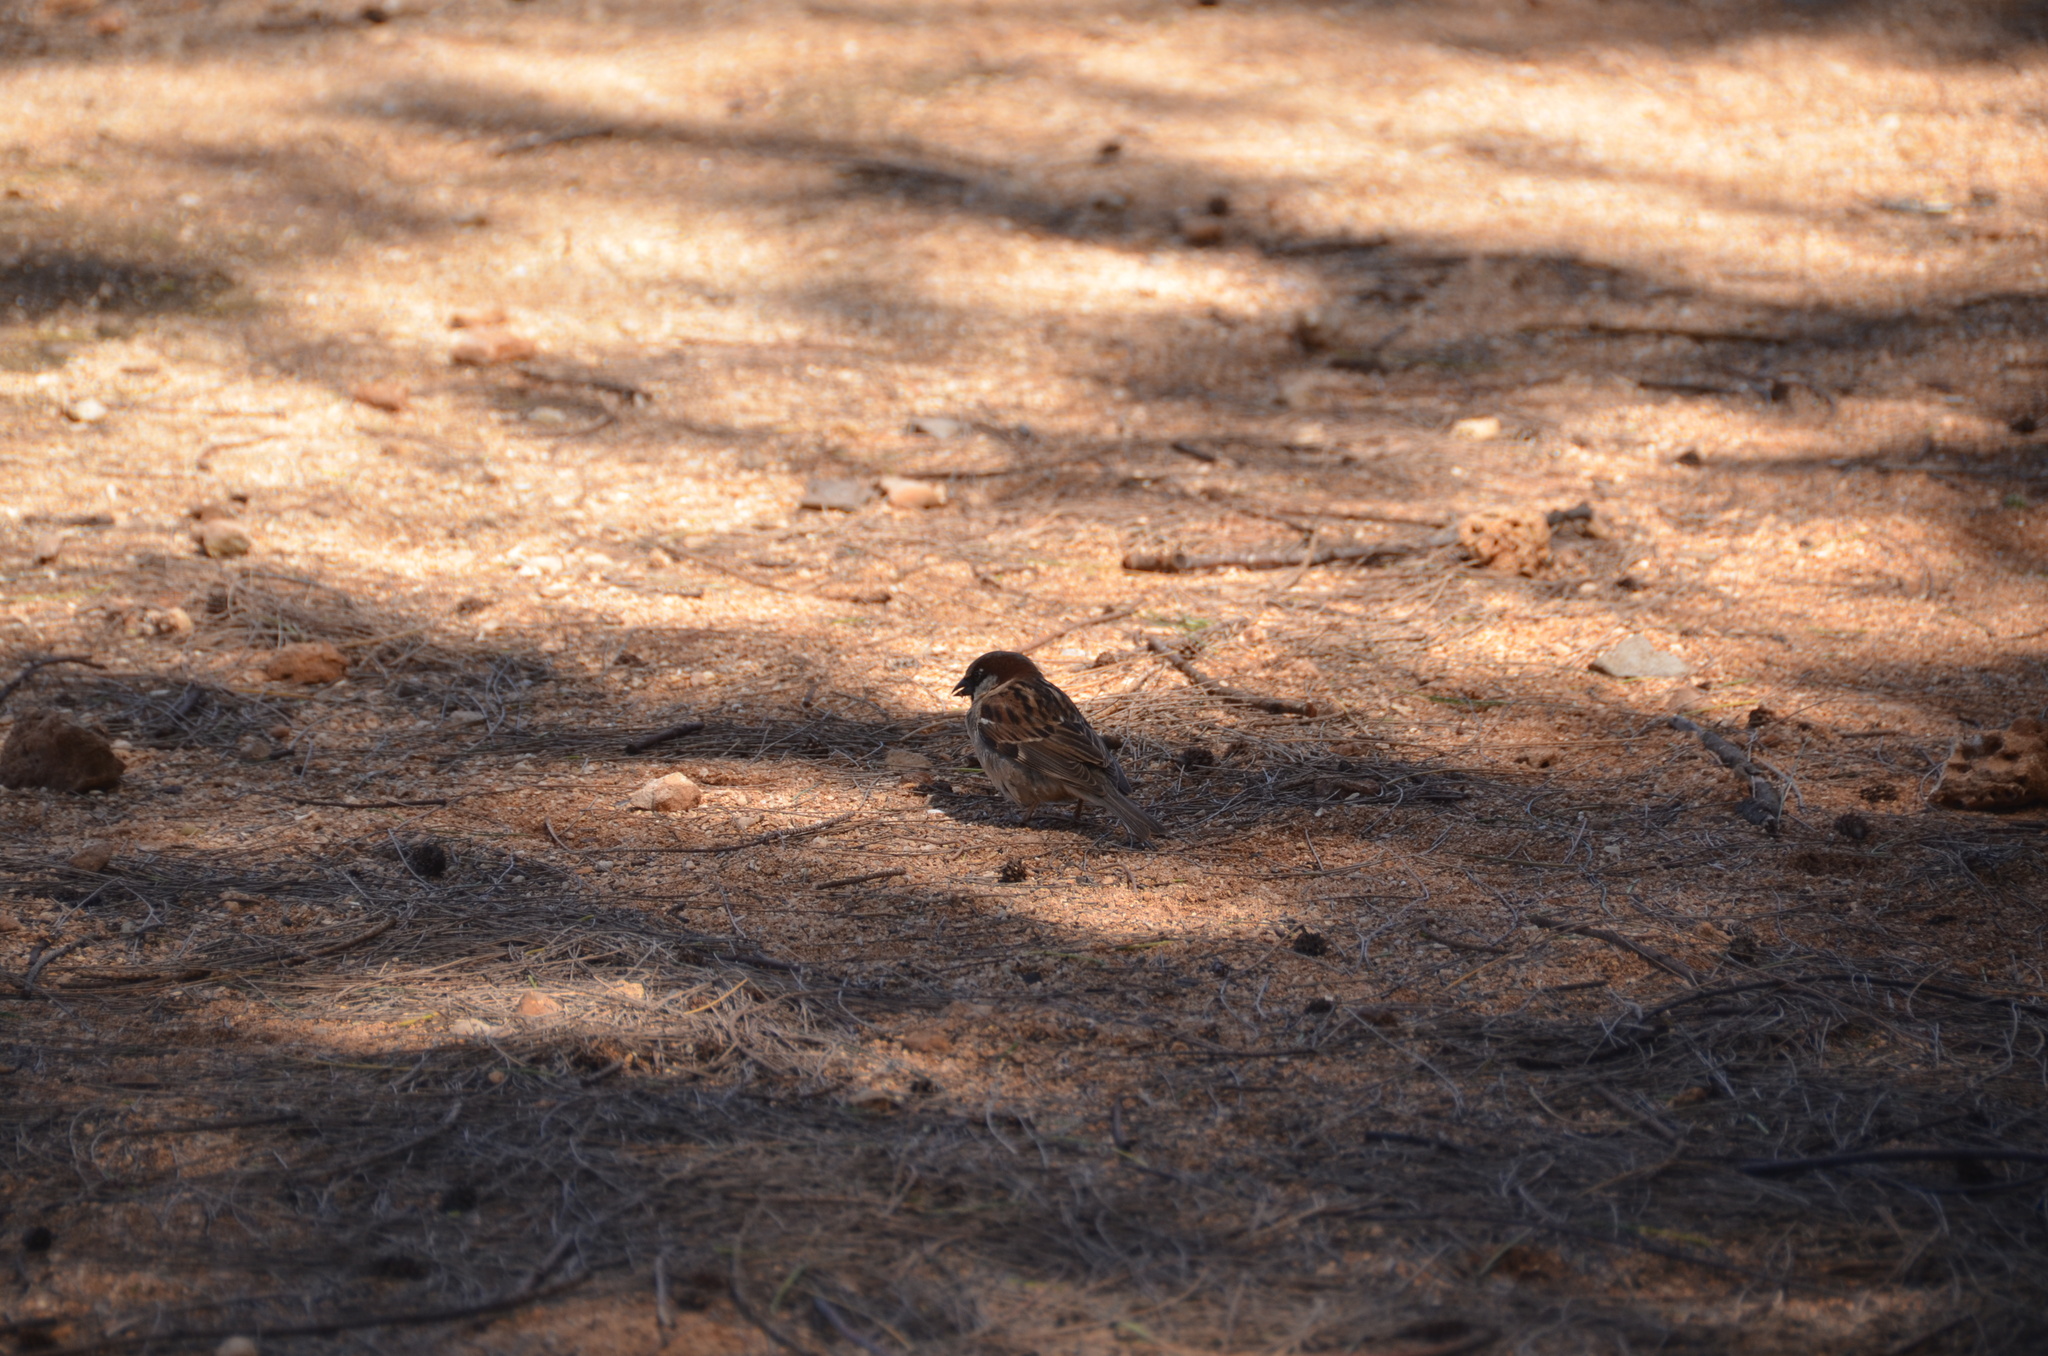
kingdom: Animalia
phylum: Chordata
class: Aves
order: Passeriformes
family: Passeridae
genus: Passer
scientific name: Passer domesticus
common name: House sparrow
